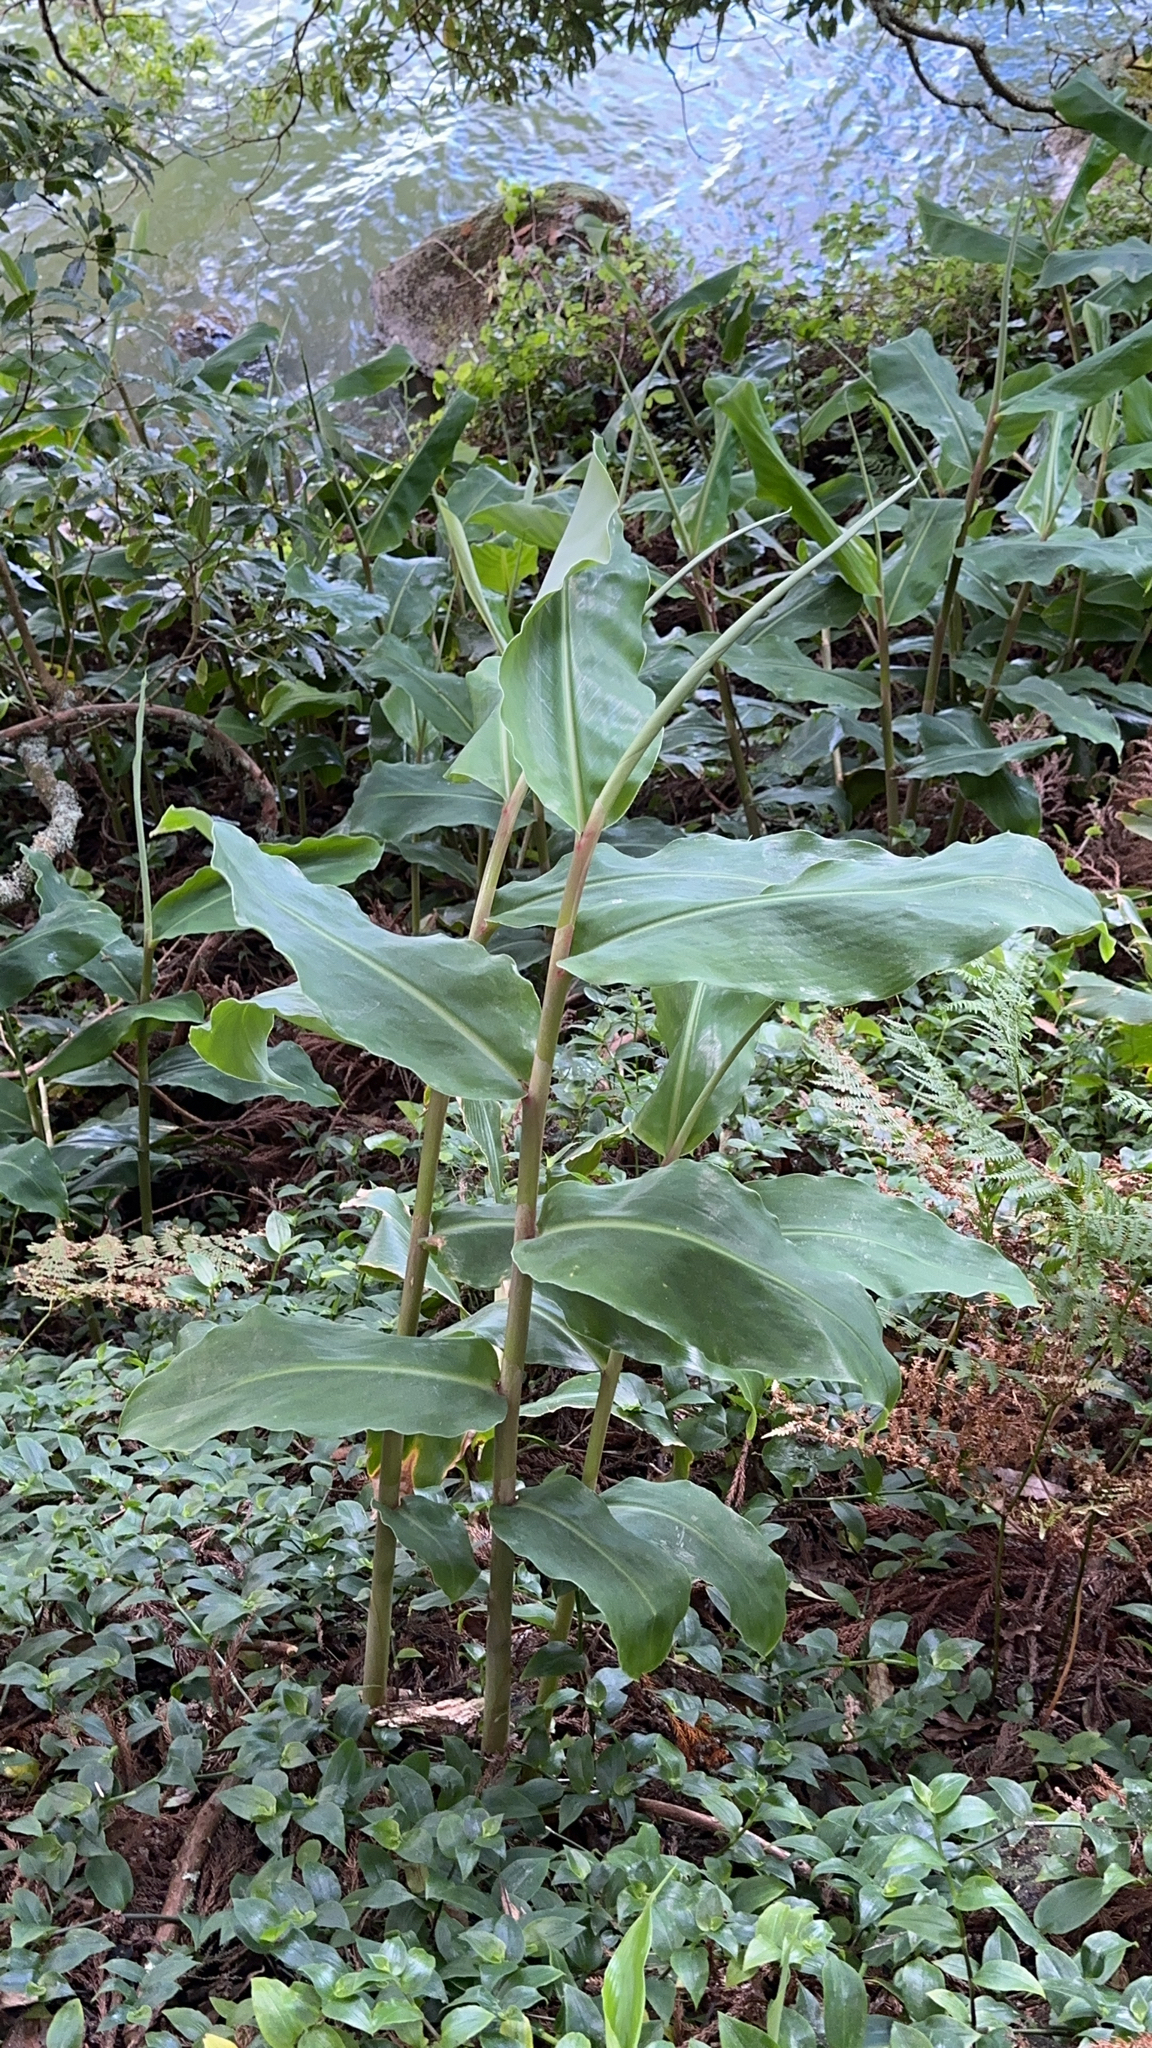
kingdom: Plantae
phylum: Tracheophyta
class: Liliopsida
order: Zingiberales
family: Zingiberaceae
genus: Hedychium
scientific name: Hedychium gardnerianum
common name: Himalayan ginger
